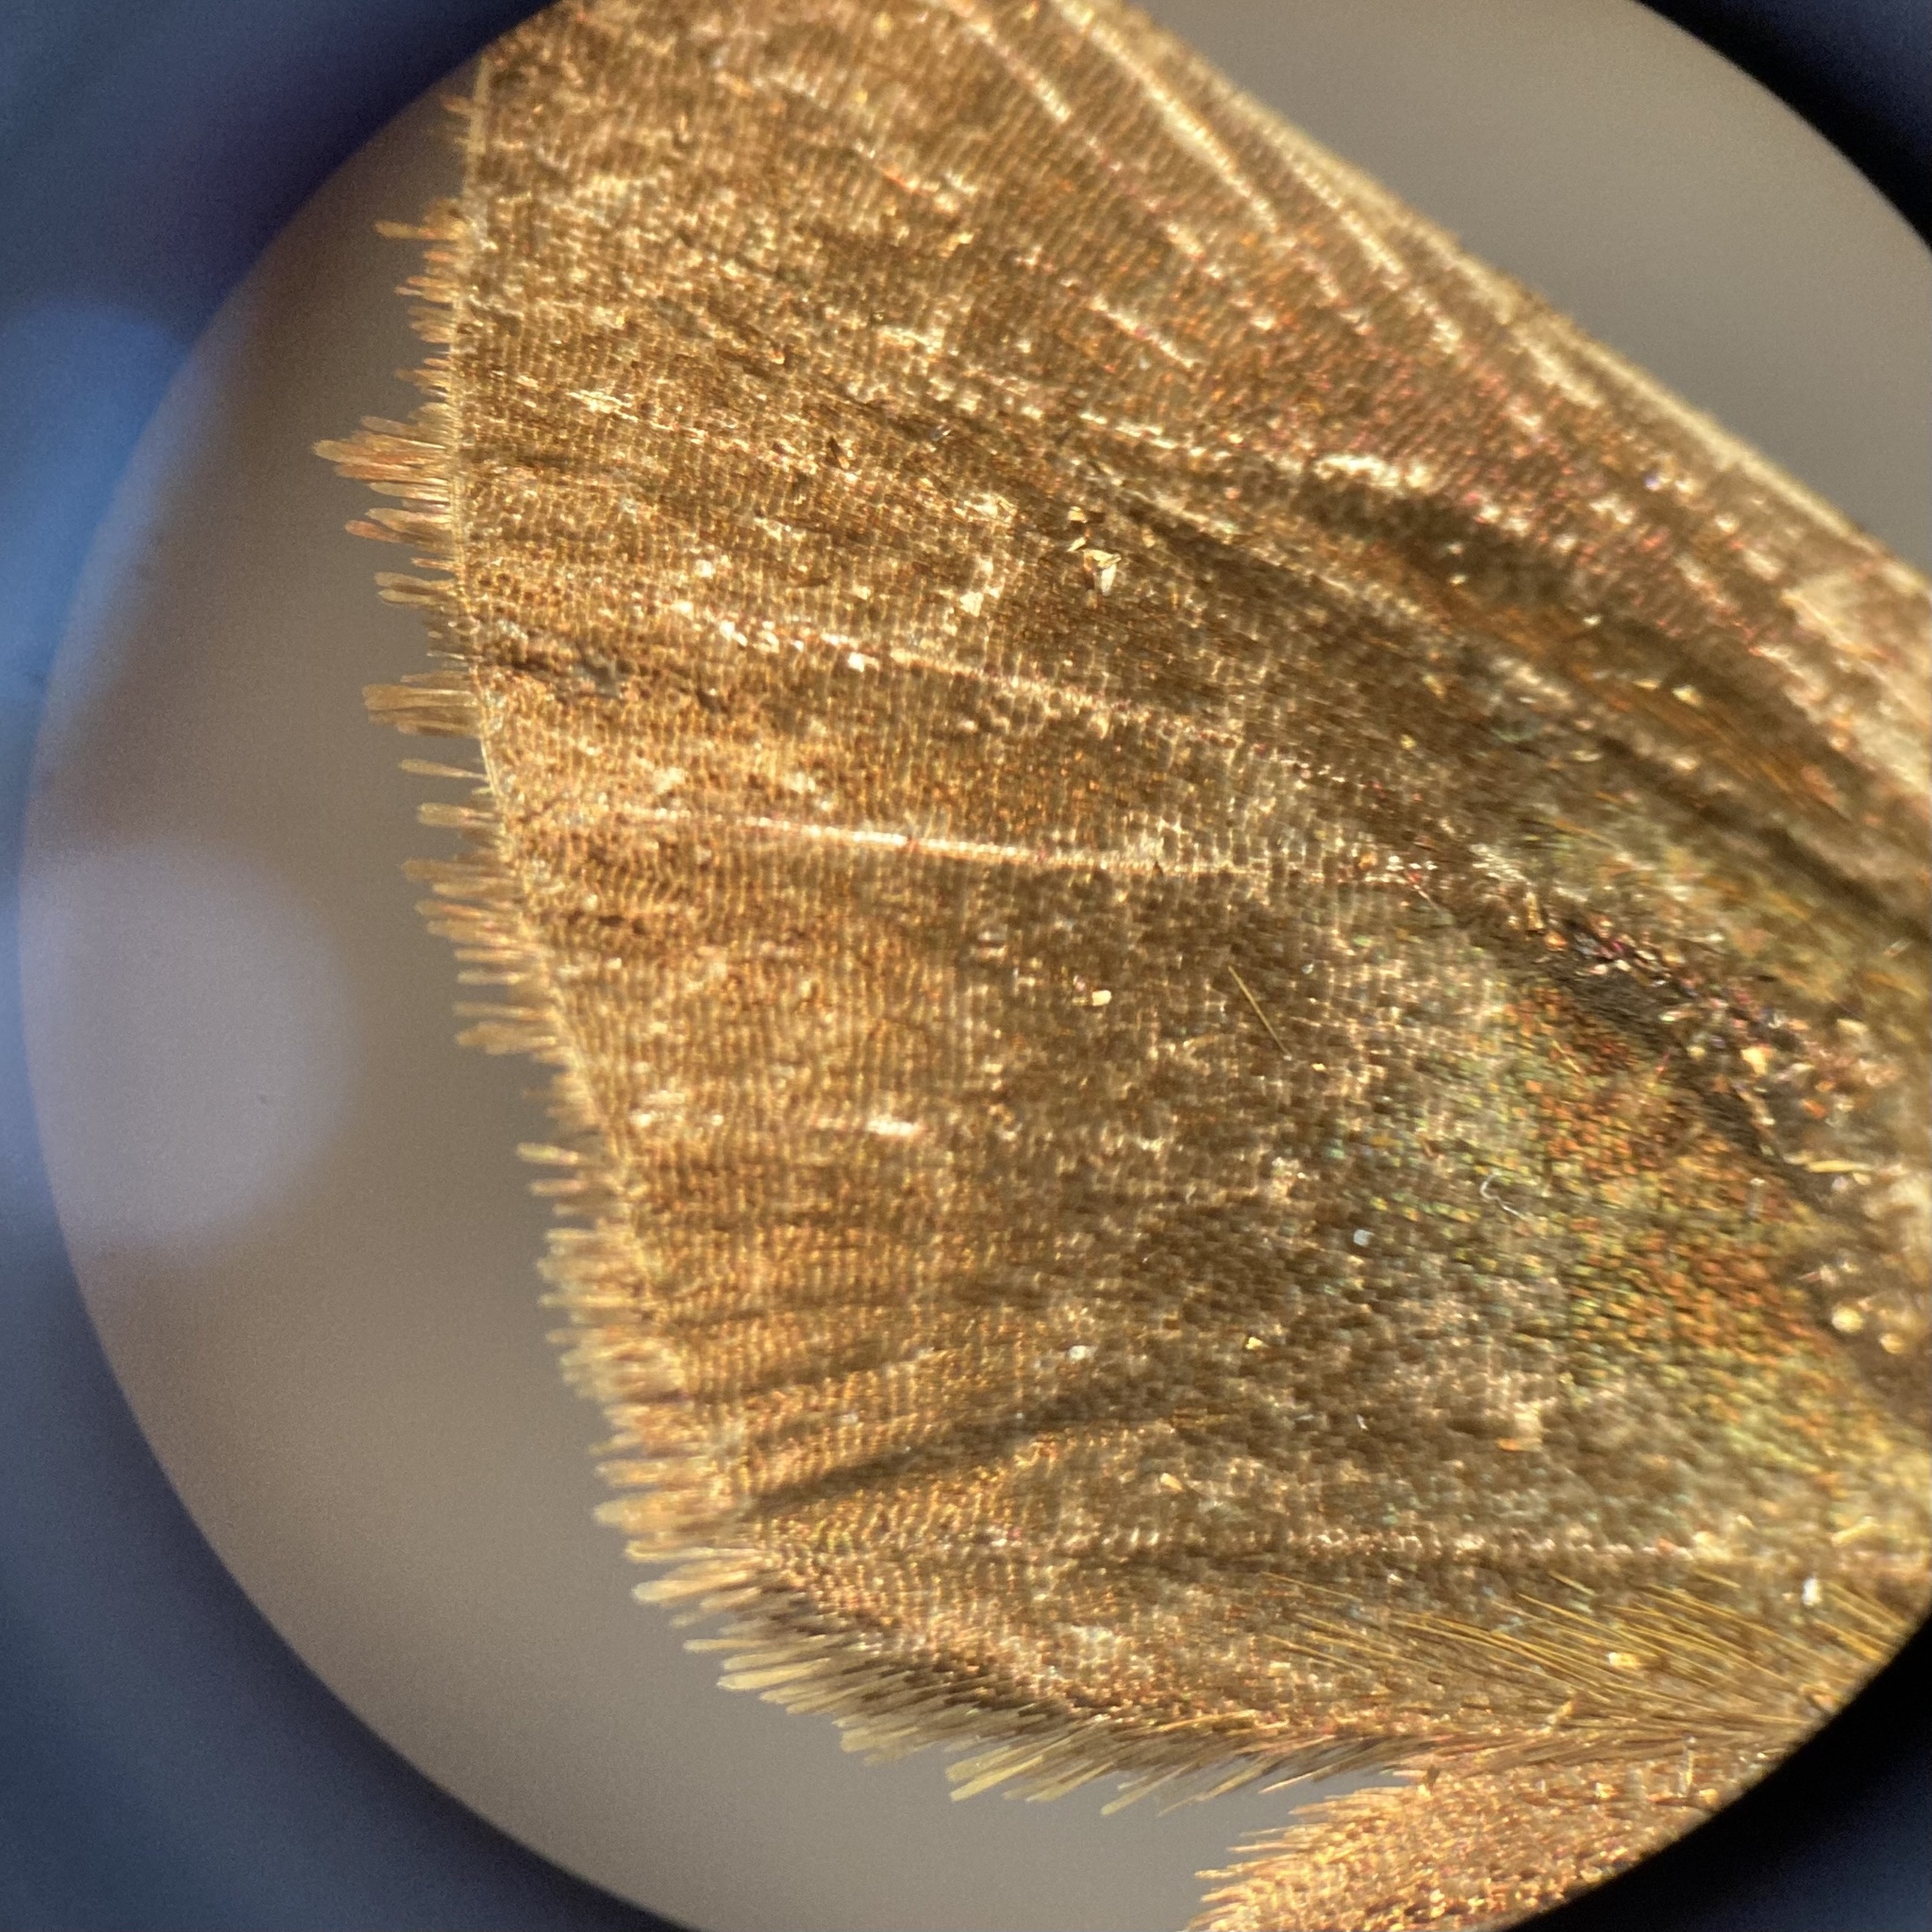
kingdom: Animalia
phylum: Arthropoda
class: Insecta
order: Lepidoptera
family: Hesperiidae
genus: Euphyes
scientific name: Euphyes vestris
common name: Dun skipper
